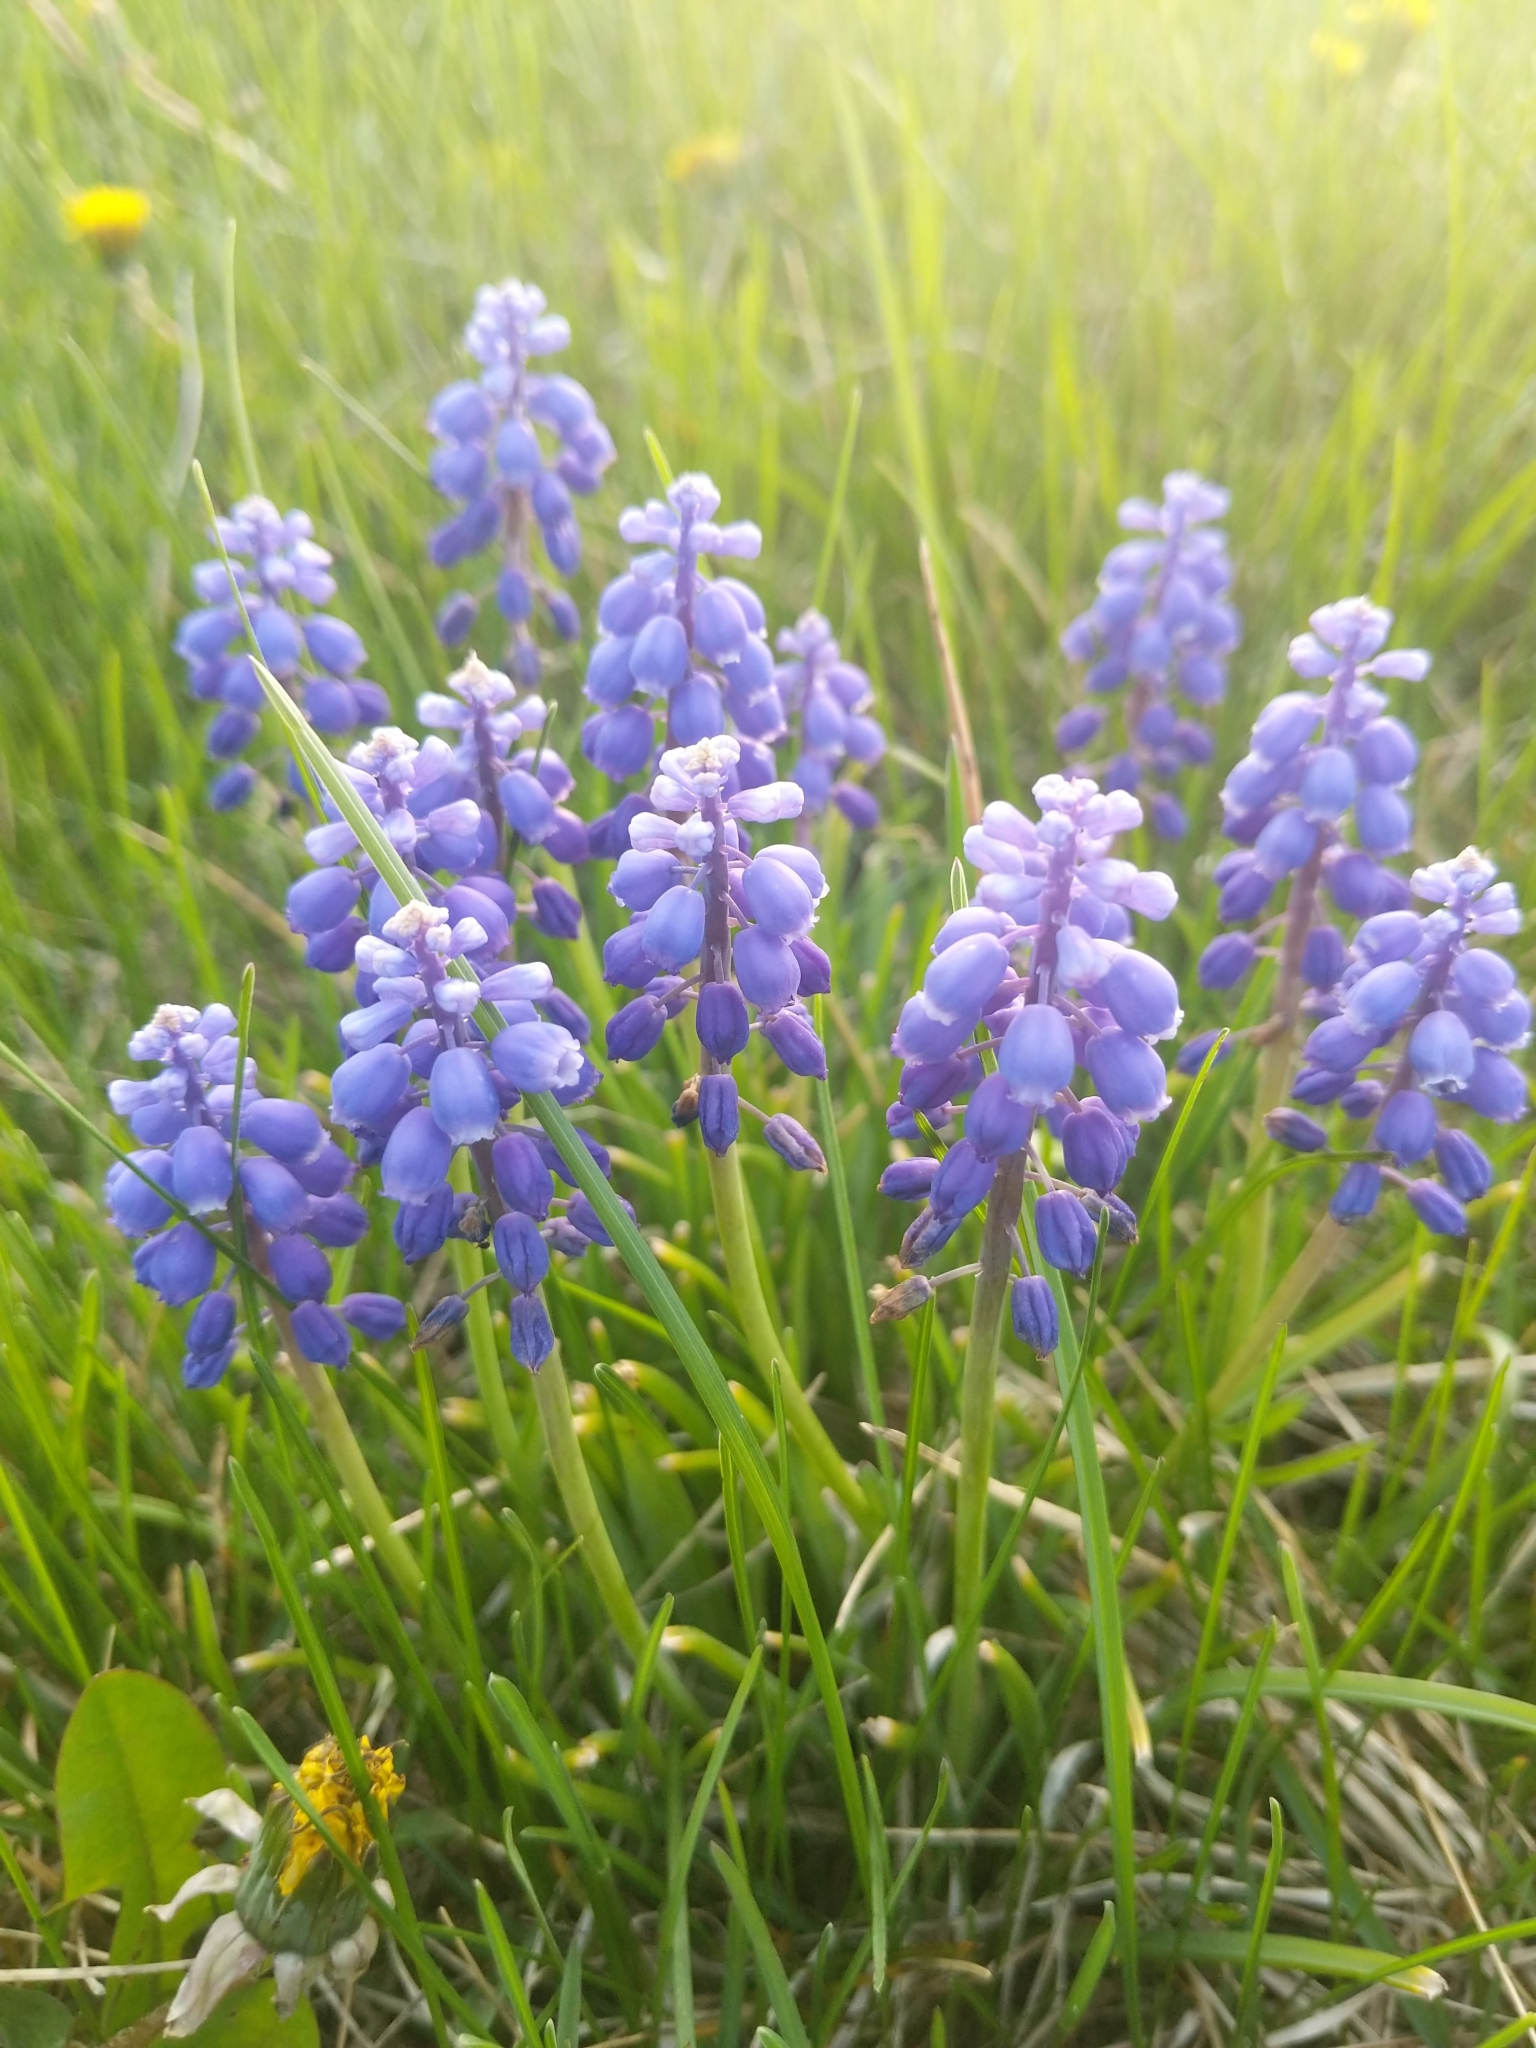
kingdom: Plantae
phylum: Tracheophyta
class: Liliopsida
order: Asparagales
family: Asparagaceae
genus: Muscari
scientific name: Muscari armeniacum
